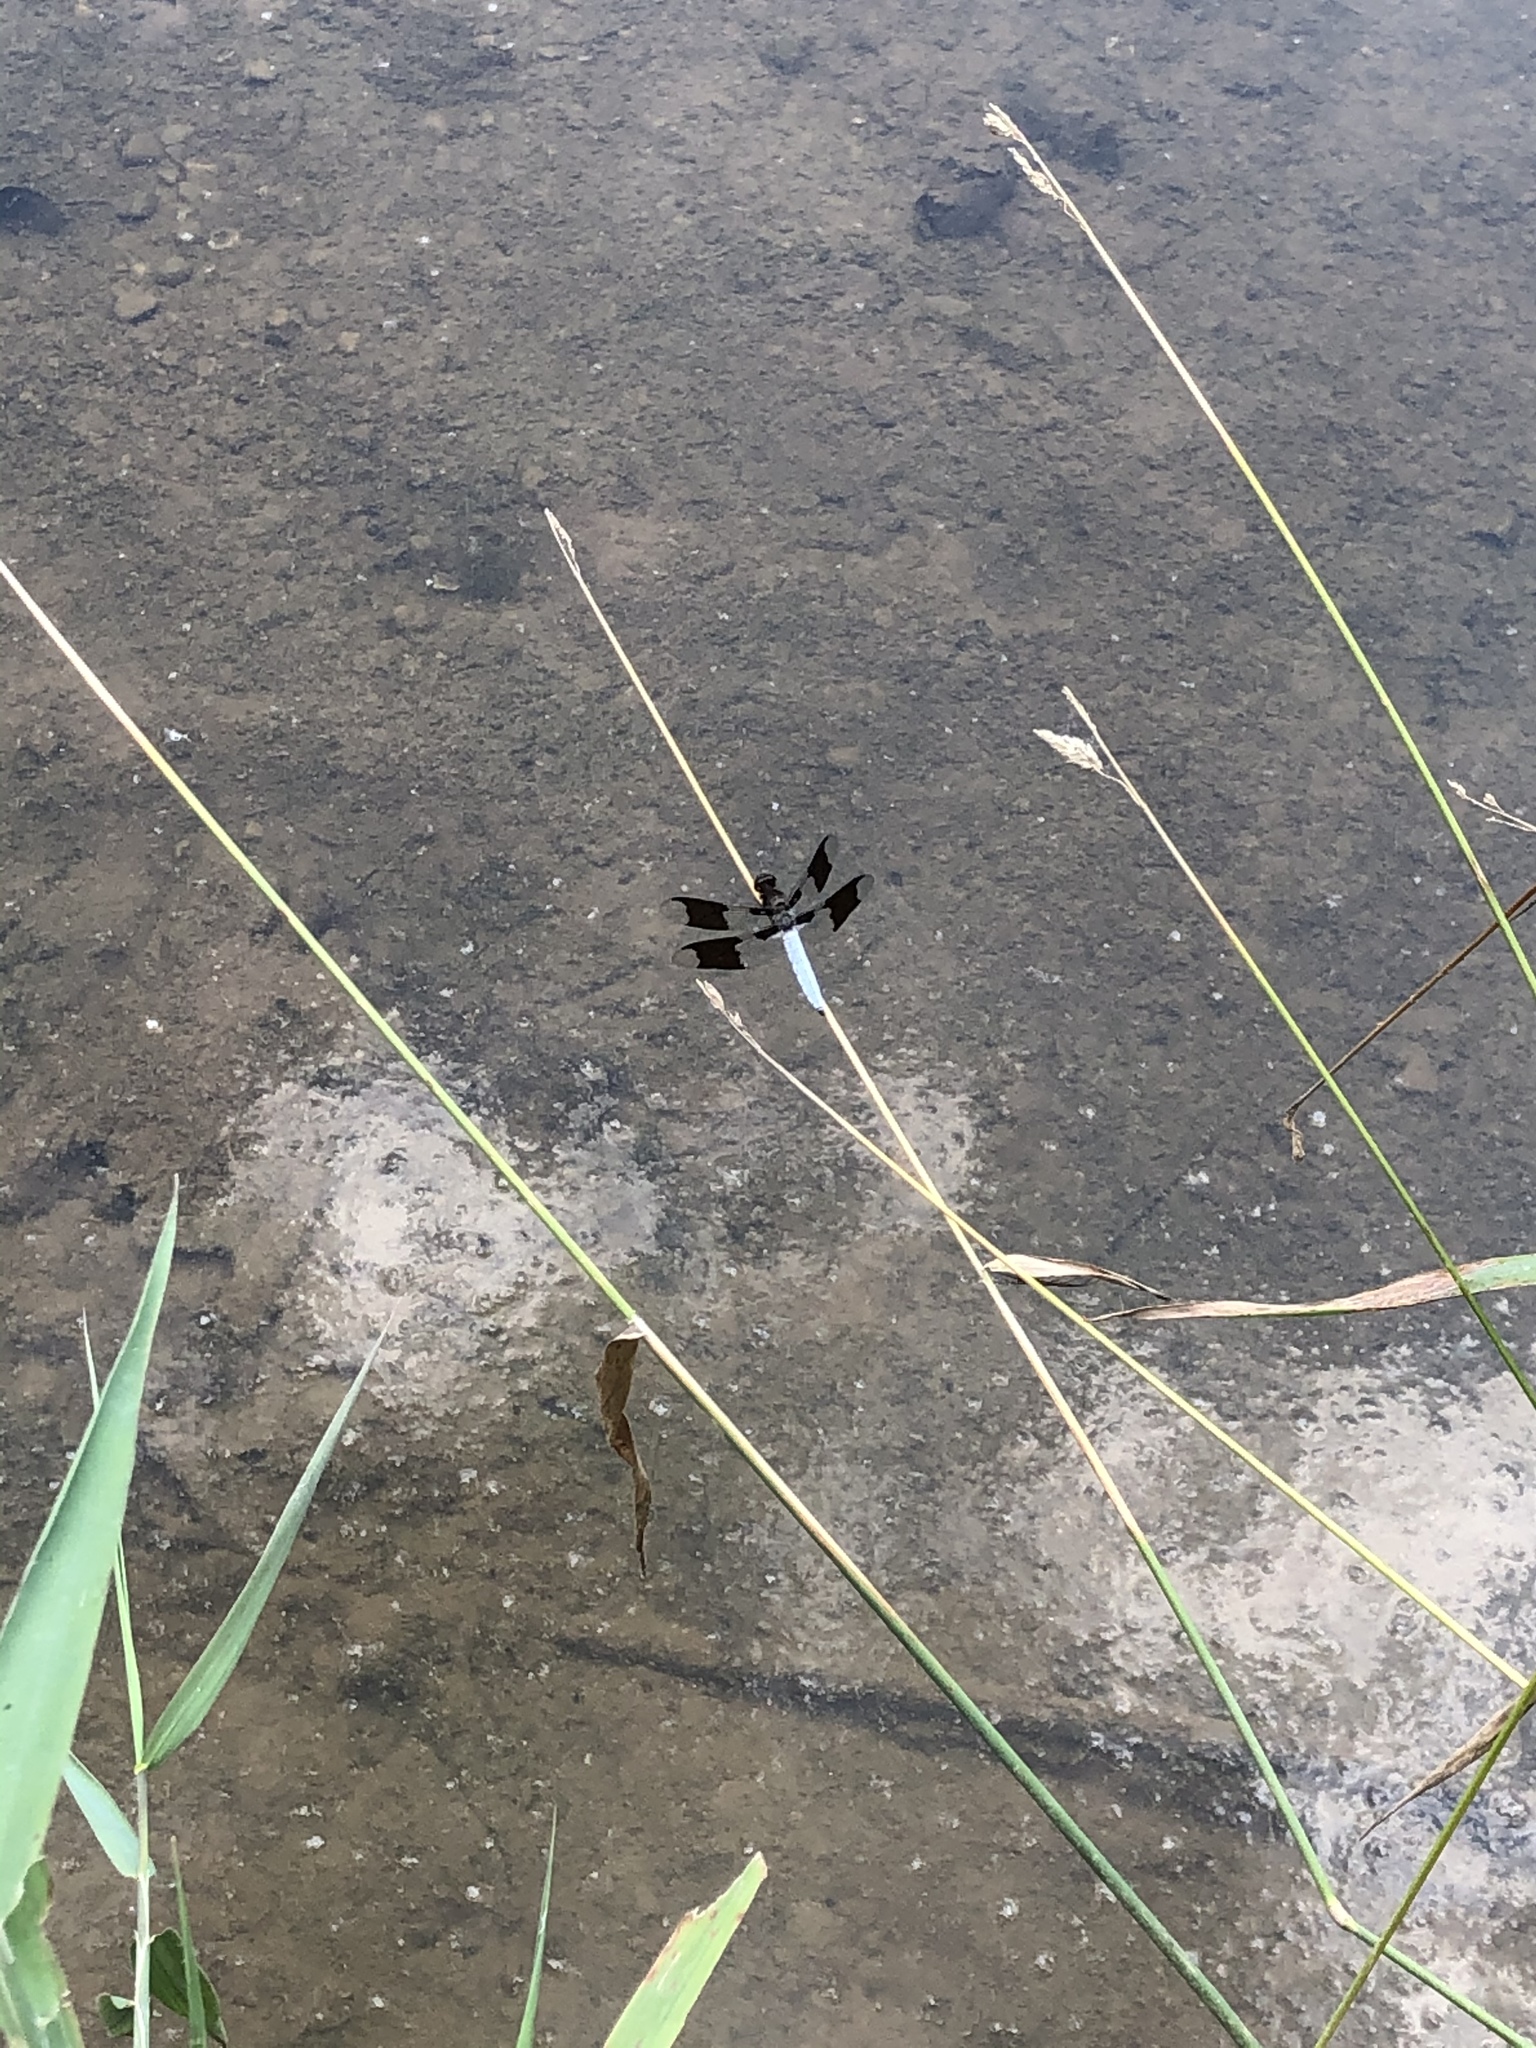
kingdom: Animalia
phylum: Arthropoda
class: Insecta
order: Odonata
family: Libellulidae
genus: Plathemis
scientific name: Plathemis lydia
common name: Common whitetail
